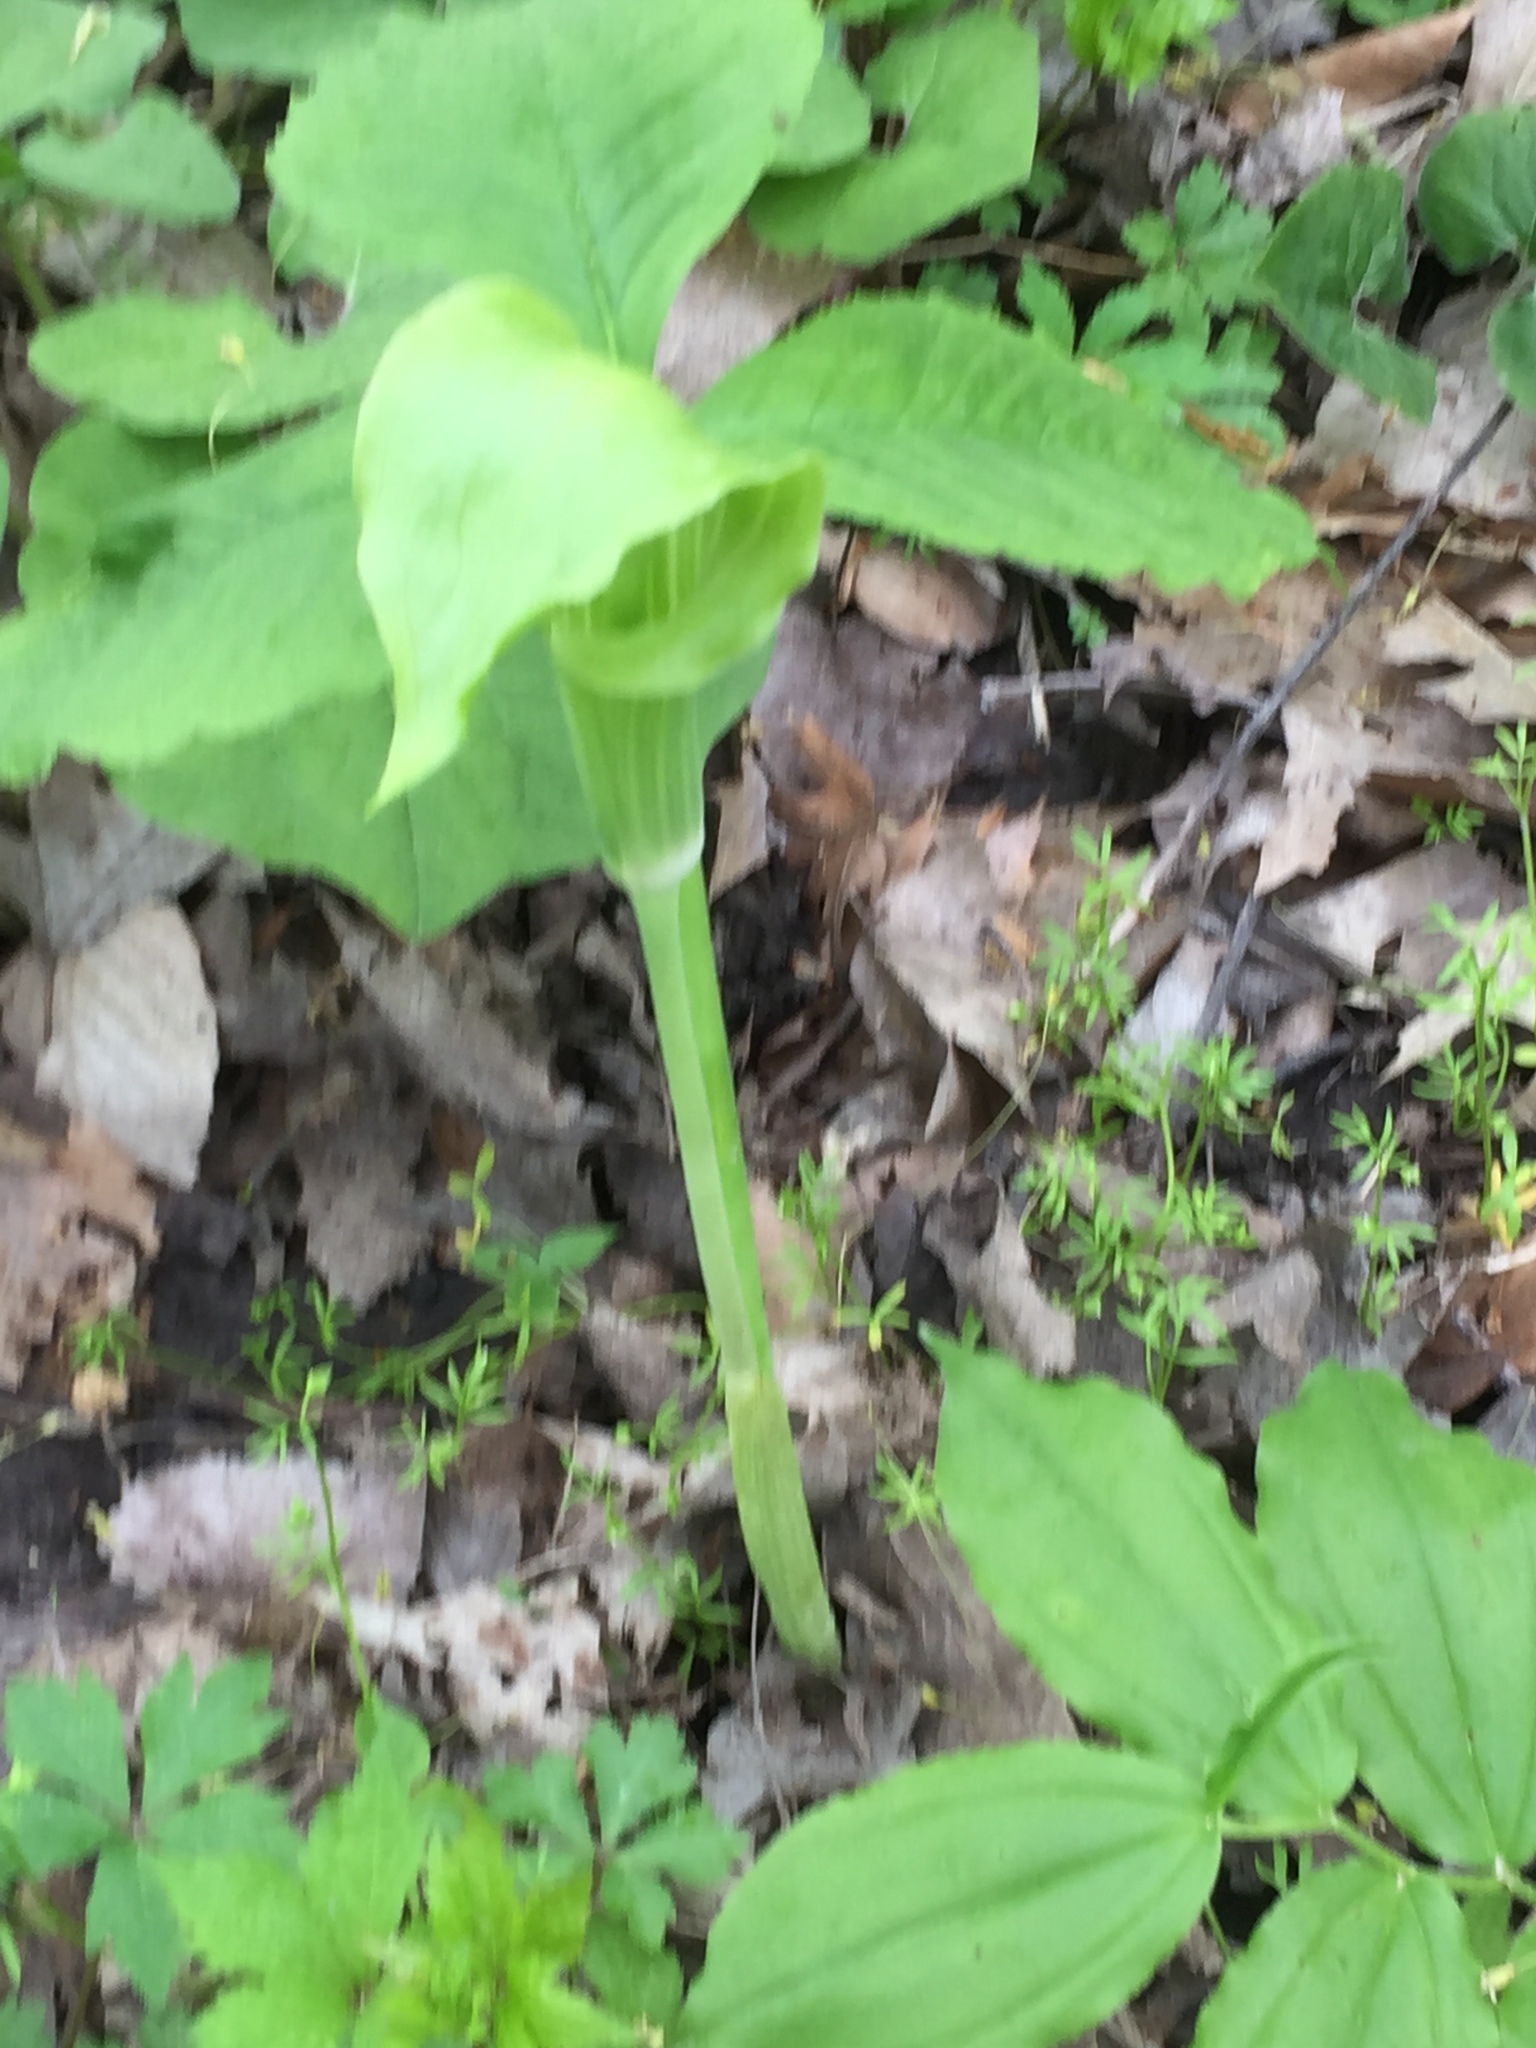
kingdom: Plantae
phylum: Tracheophyta
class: Liliopsida
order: Alismatales
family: Araceae
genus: Arisaema
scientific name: Arisaema triphyllum
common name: Jack-in-the-pulpit
